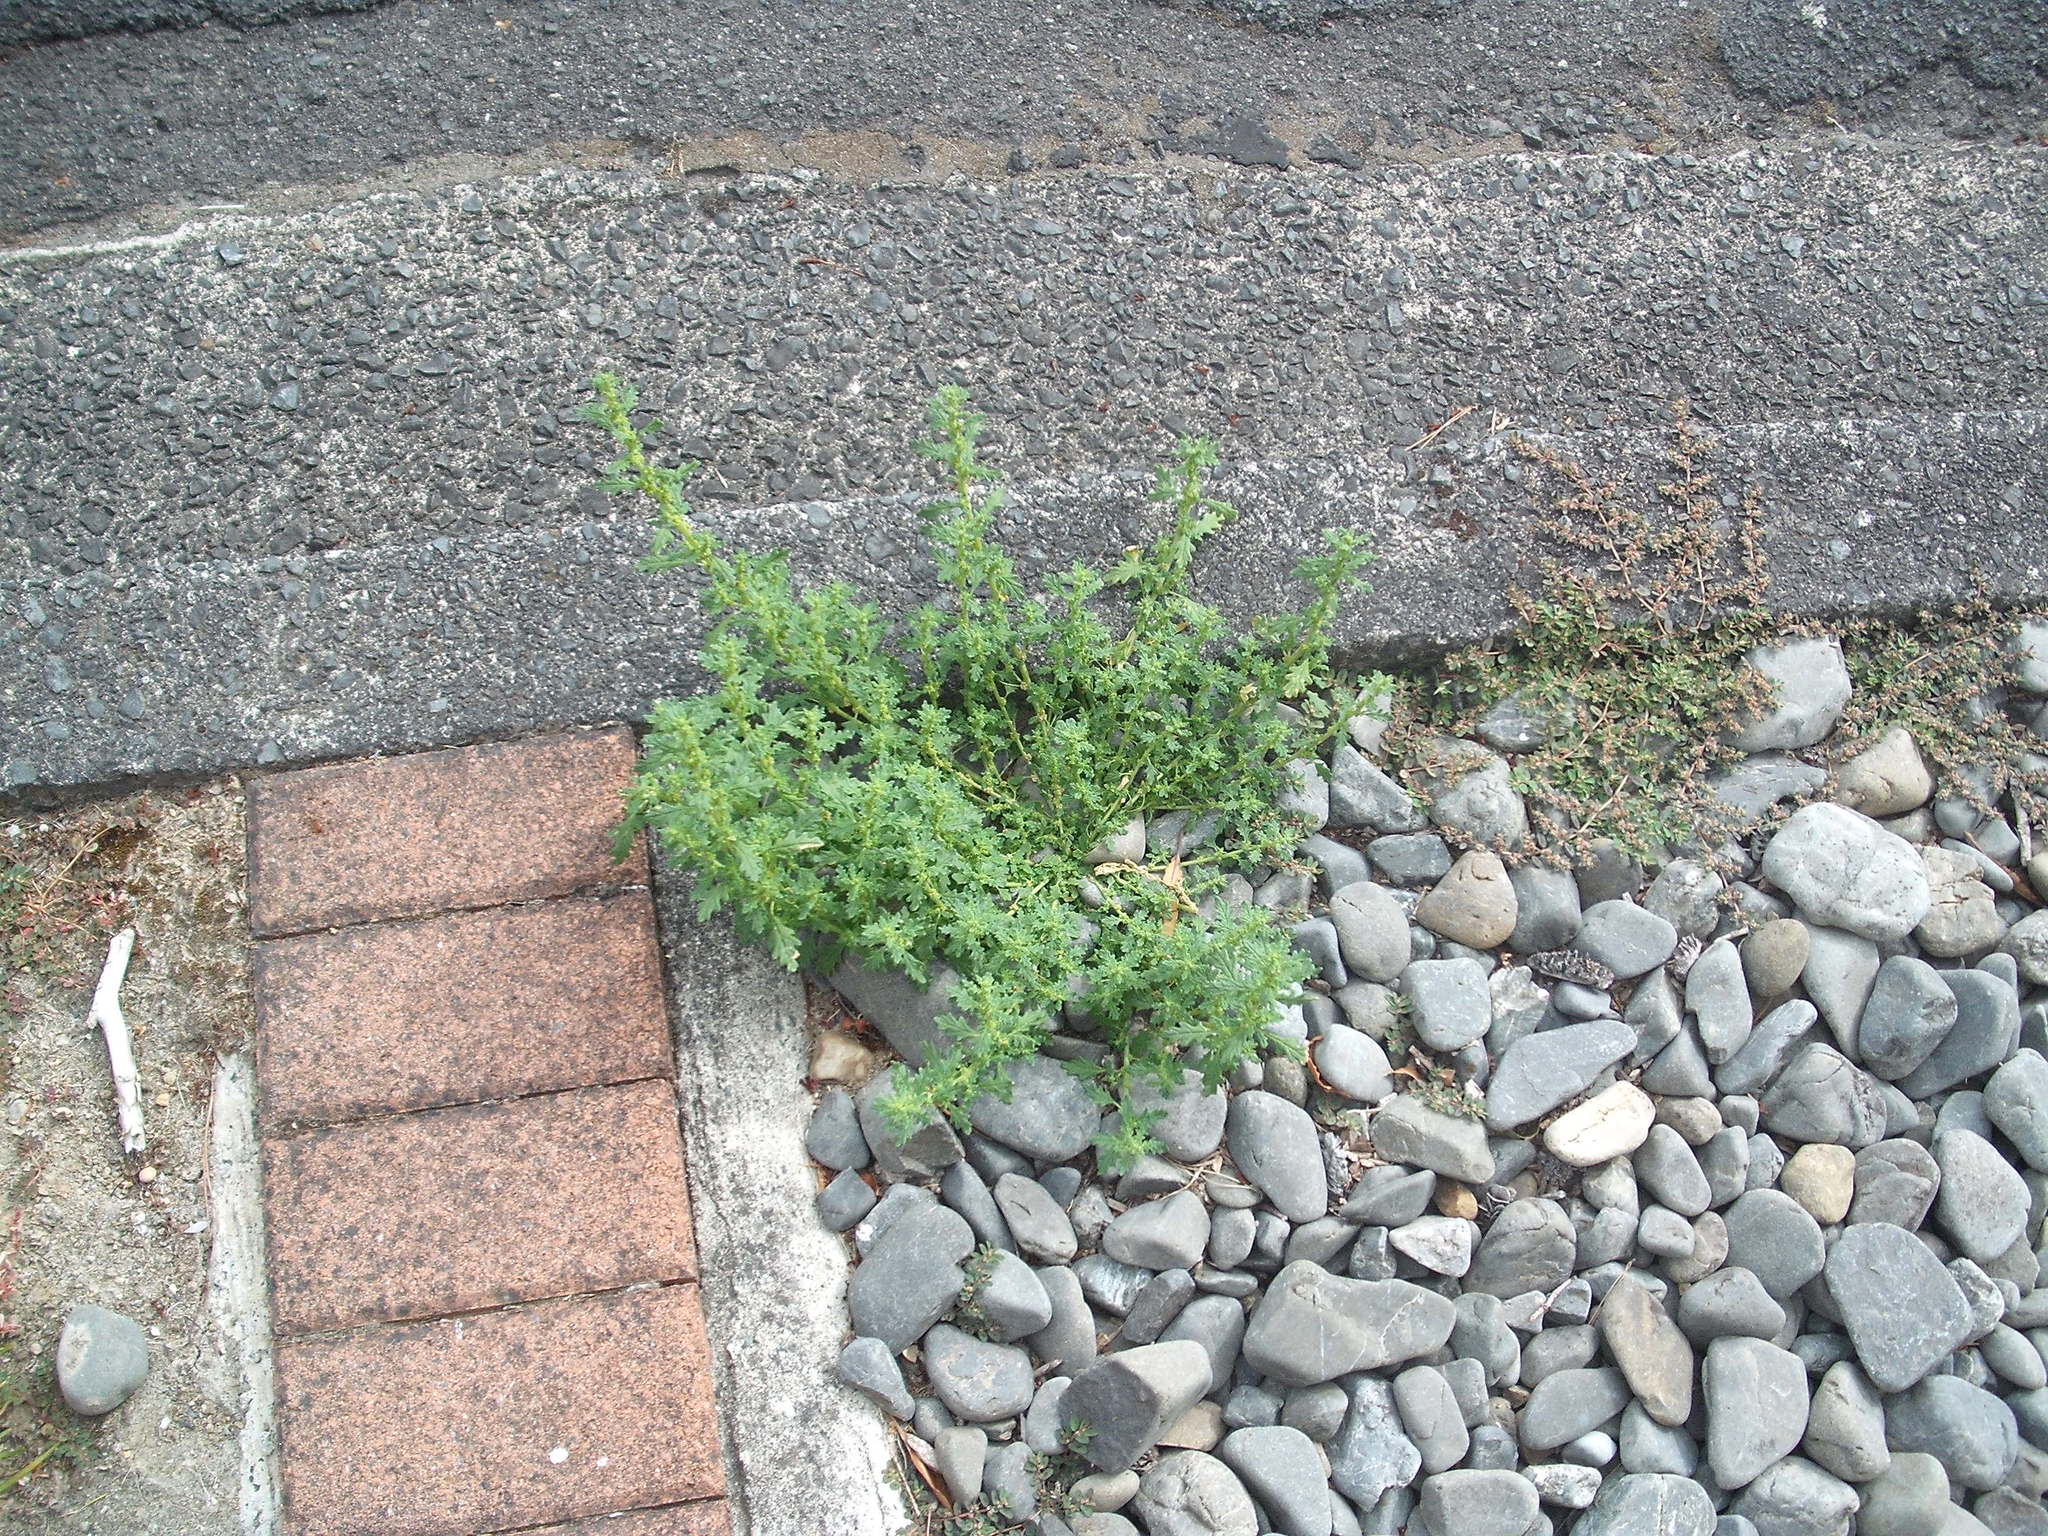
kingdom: Plantae
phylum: Tracheophyta
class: Magnoliopsida
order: Caryophyllales
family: Amaranthaceae
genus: Dysphania
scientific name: Dysphania pumilio
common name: Clammy goosefoot
